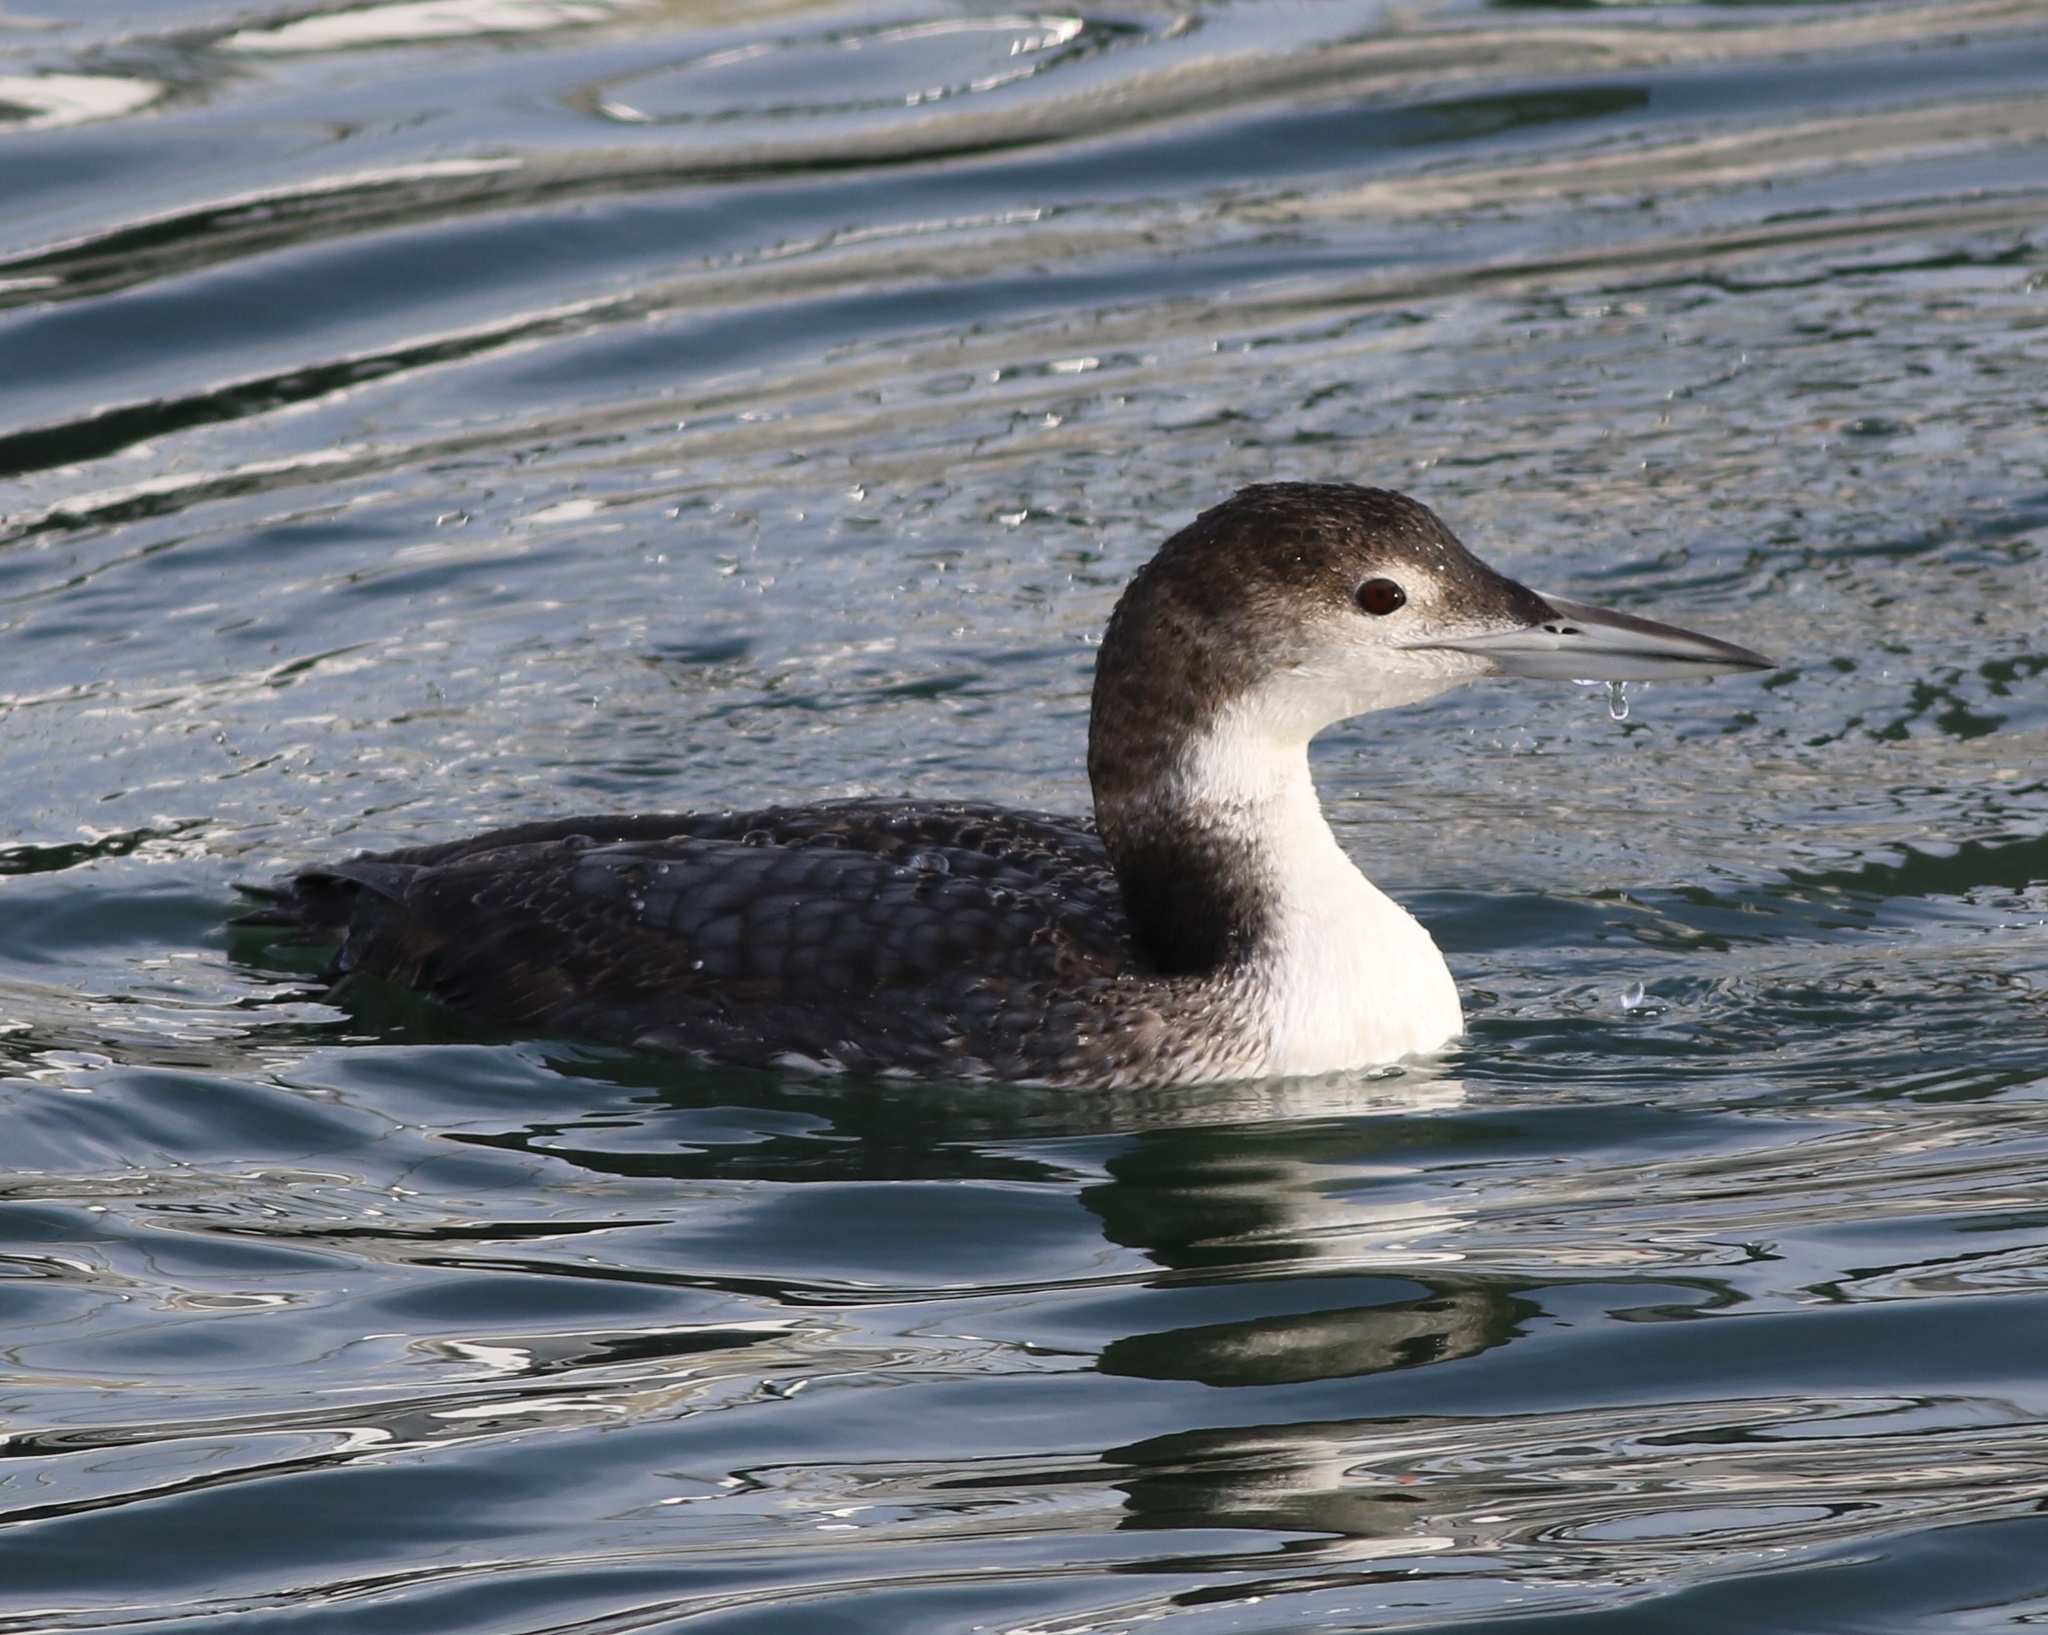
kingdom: Animalia
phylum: Chordata
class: Aves
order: Gaviiformes
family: Gaviidae
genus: Gavia
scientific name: Gavia immer
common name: Common loon
